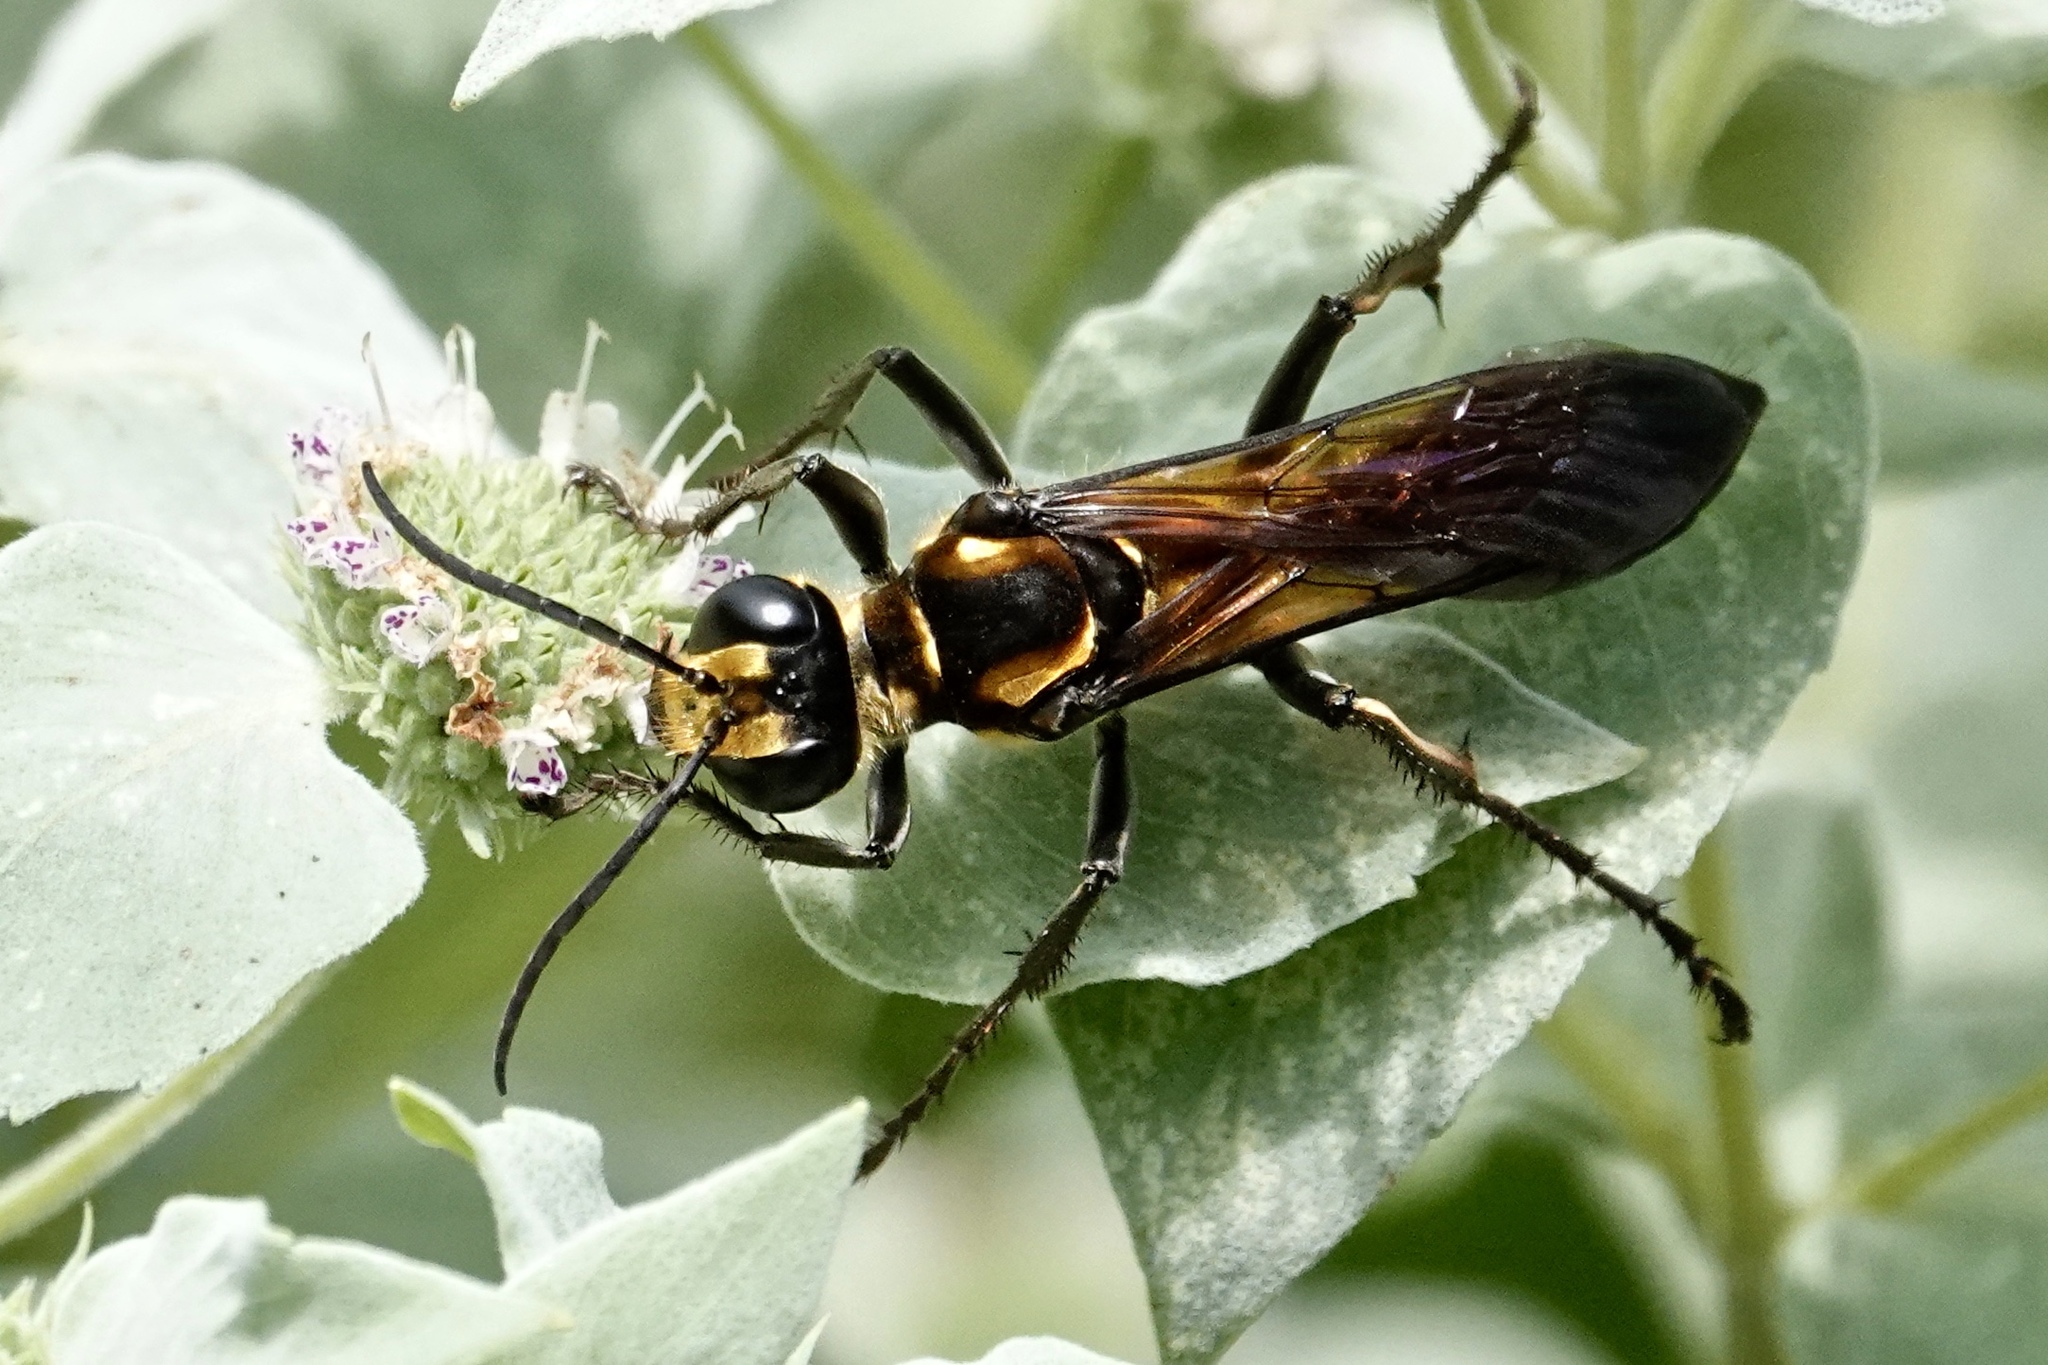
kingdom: Animalia
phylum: Arthropoda
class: Insecta
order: Hymenoptera
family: Sphecidae
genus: Sphex
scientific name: Sphex habenus
